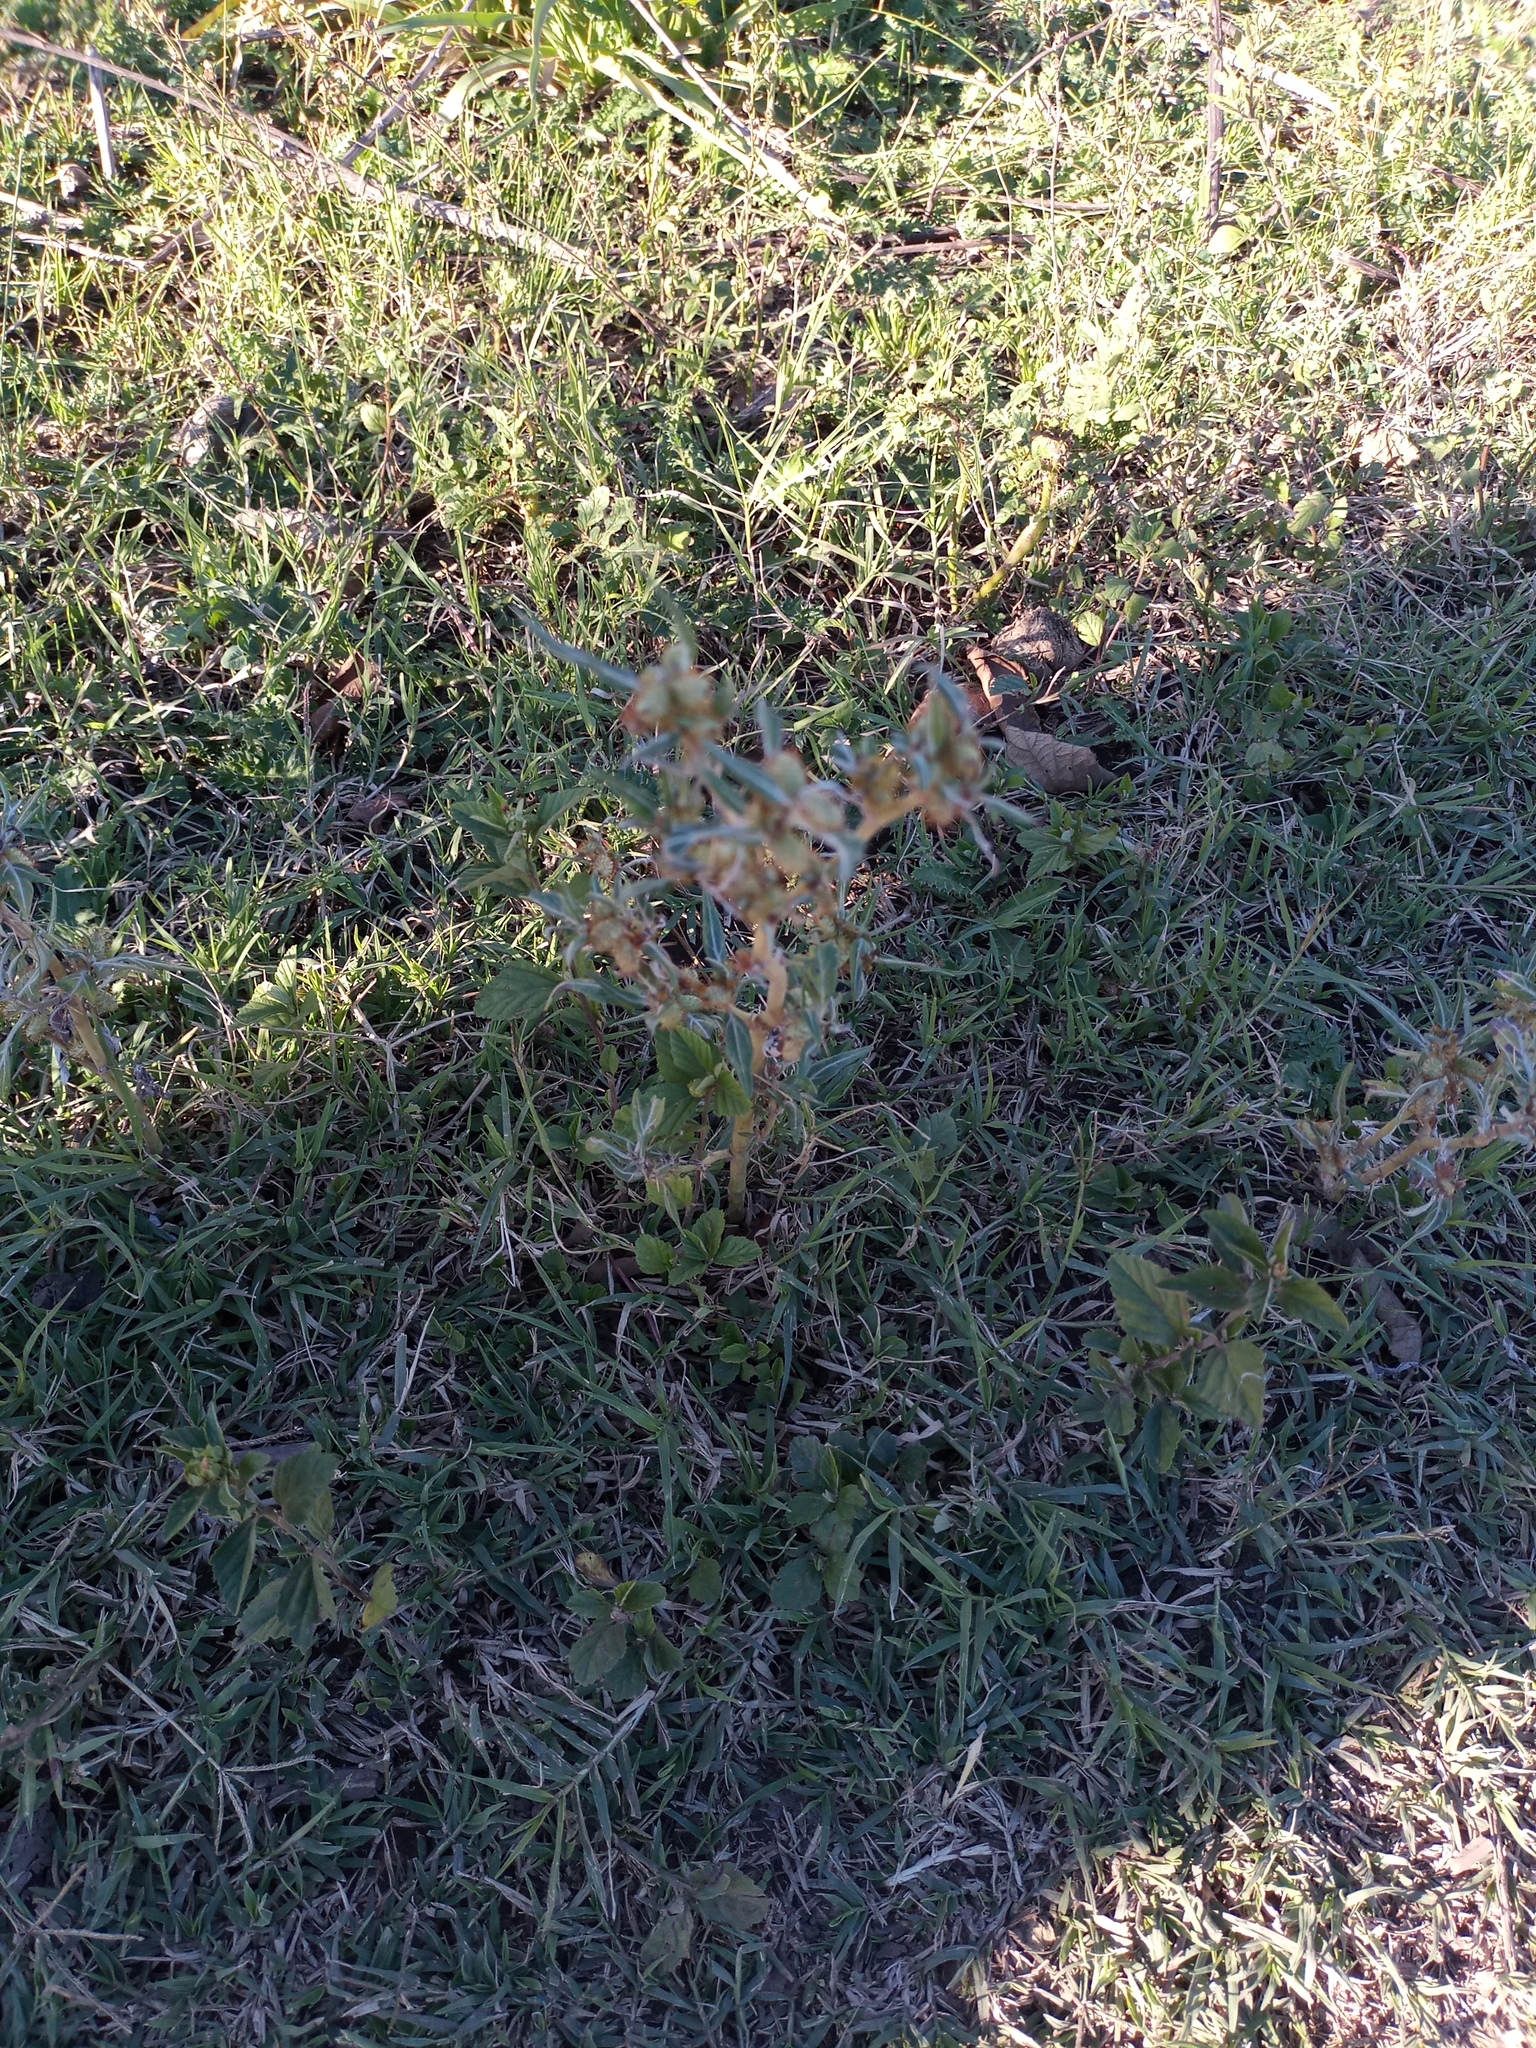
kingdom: Plantae
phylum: Tracheophyta
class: Magnoliopsida
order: Asterales
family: Asteraceae
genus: Xanthium
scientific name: Xanthium spinosum
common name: Spiny cocklebur
